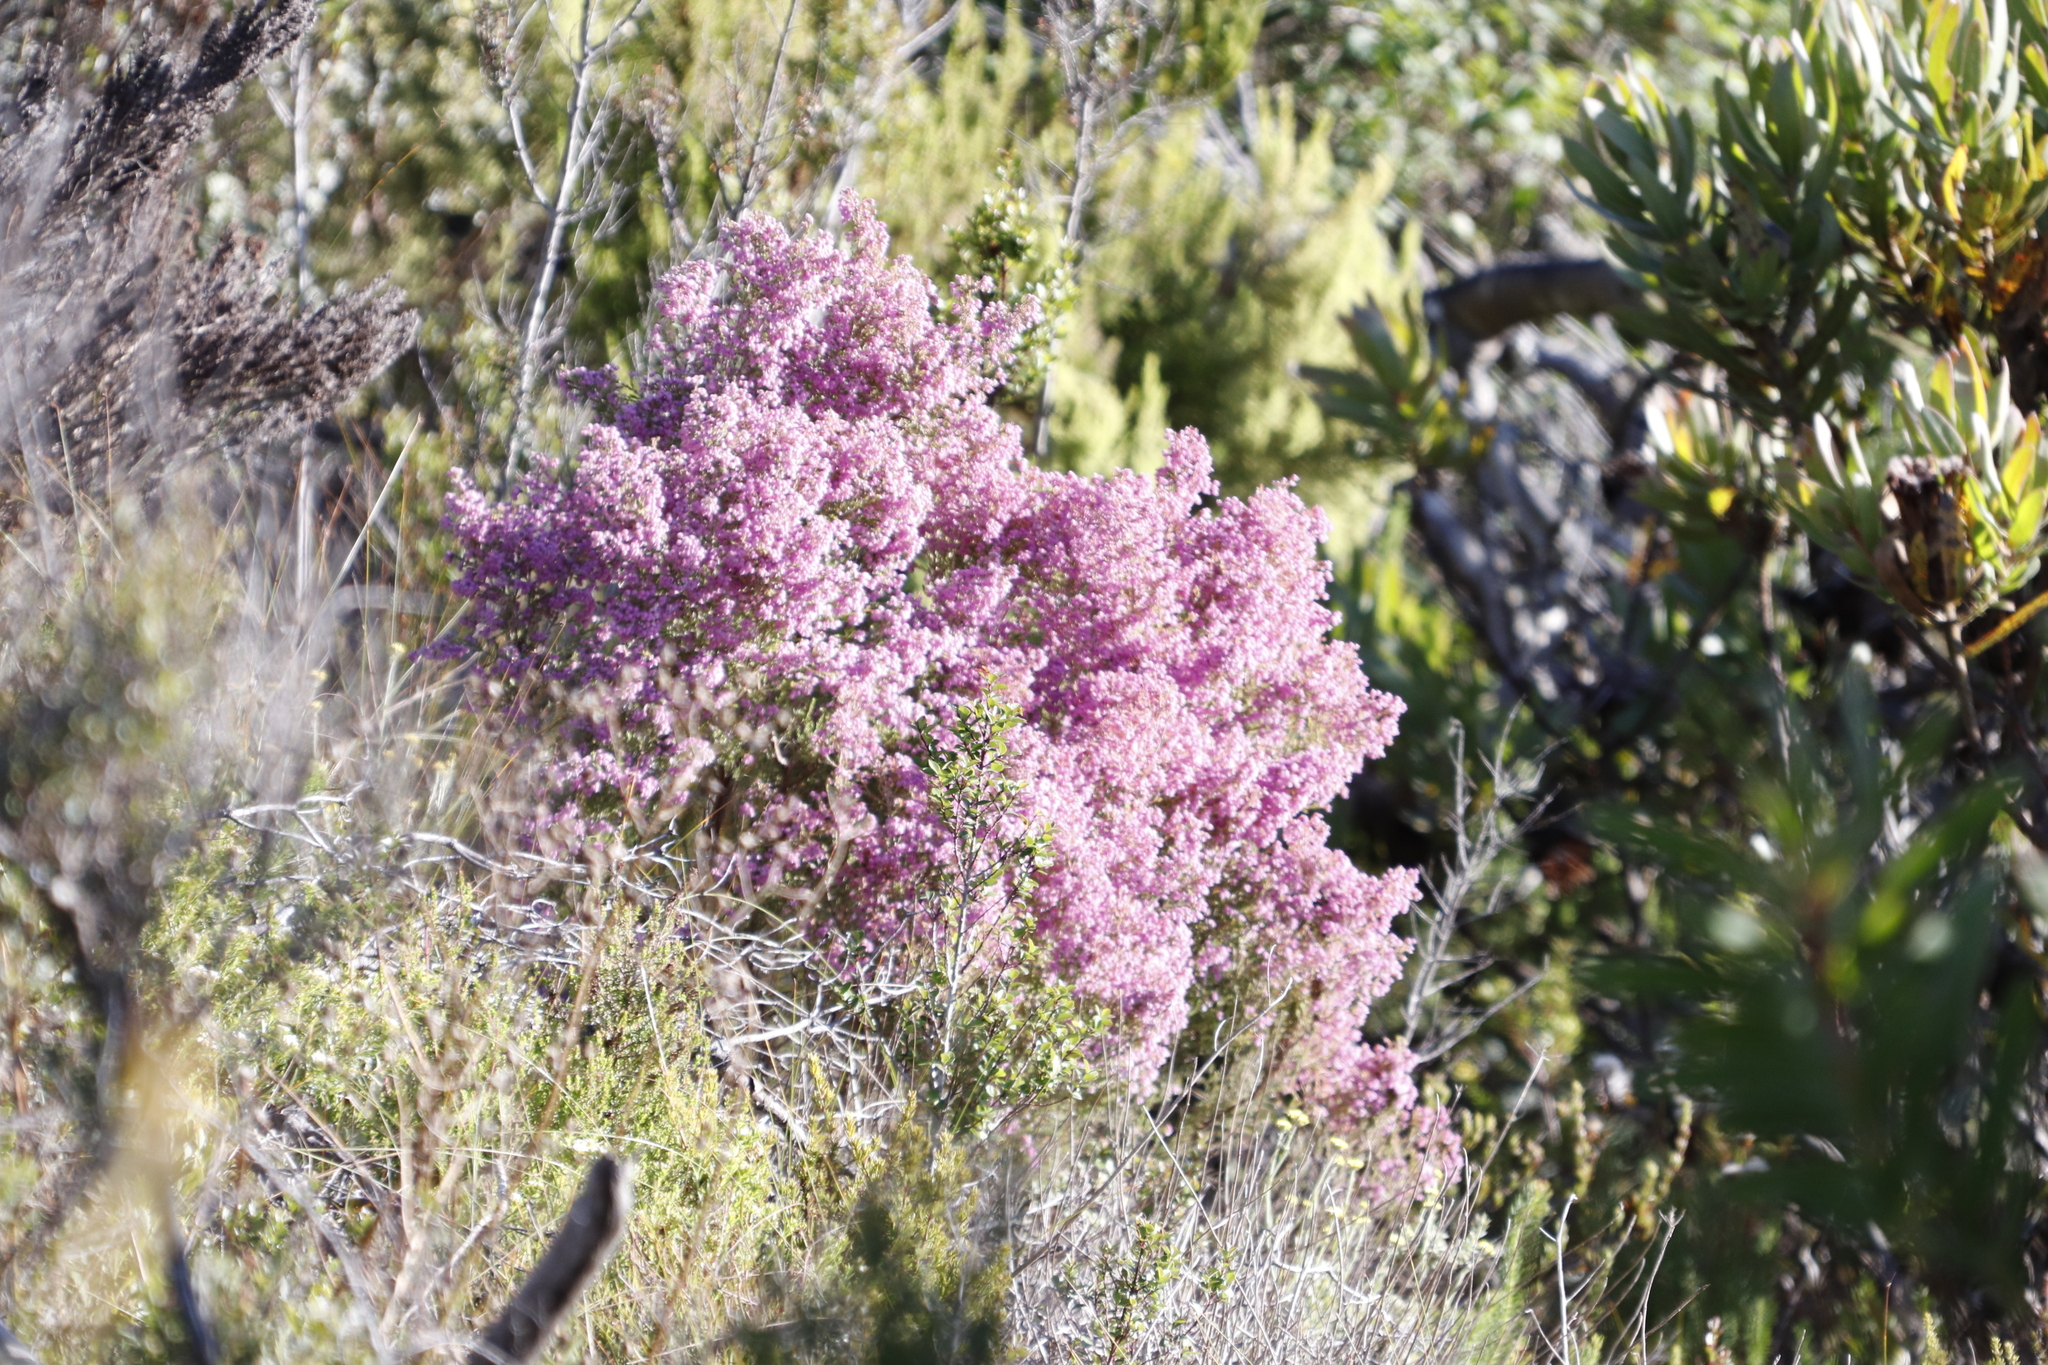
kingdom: Plantae
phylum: Tracheophyta
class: Magnoliopsida
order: Ericales
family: Ericaceae
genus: Erica
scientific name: Erica hirtiflora
